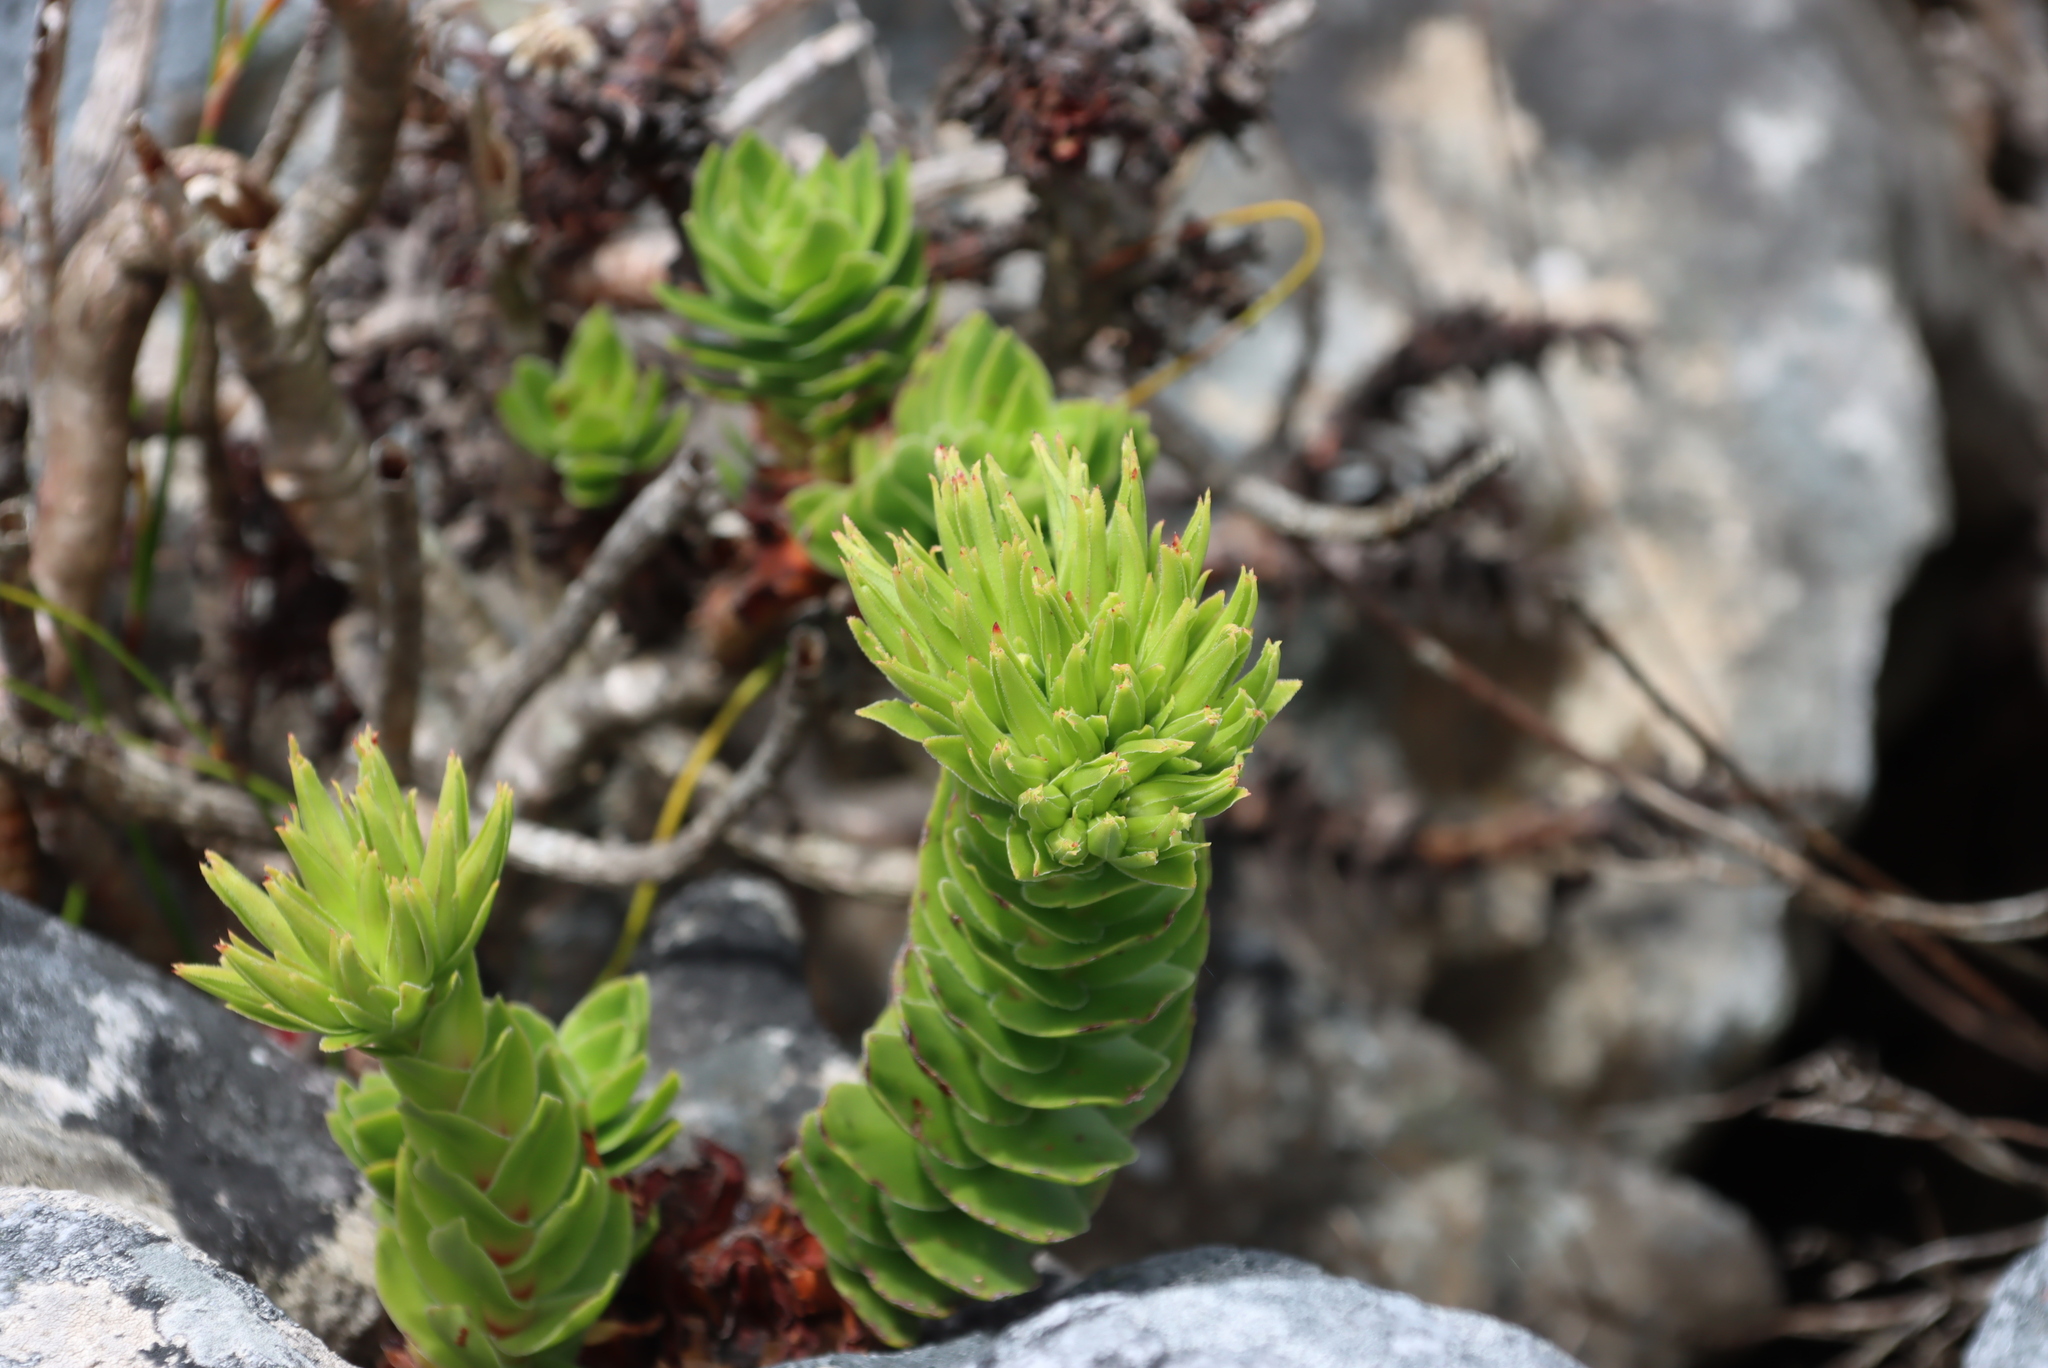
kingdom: Plantae
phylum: Tracheophyta
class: Magnoliopsida
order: Saxifragales
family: Crassulaceae
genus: Crassula
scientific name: Crassula coccinea
